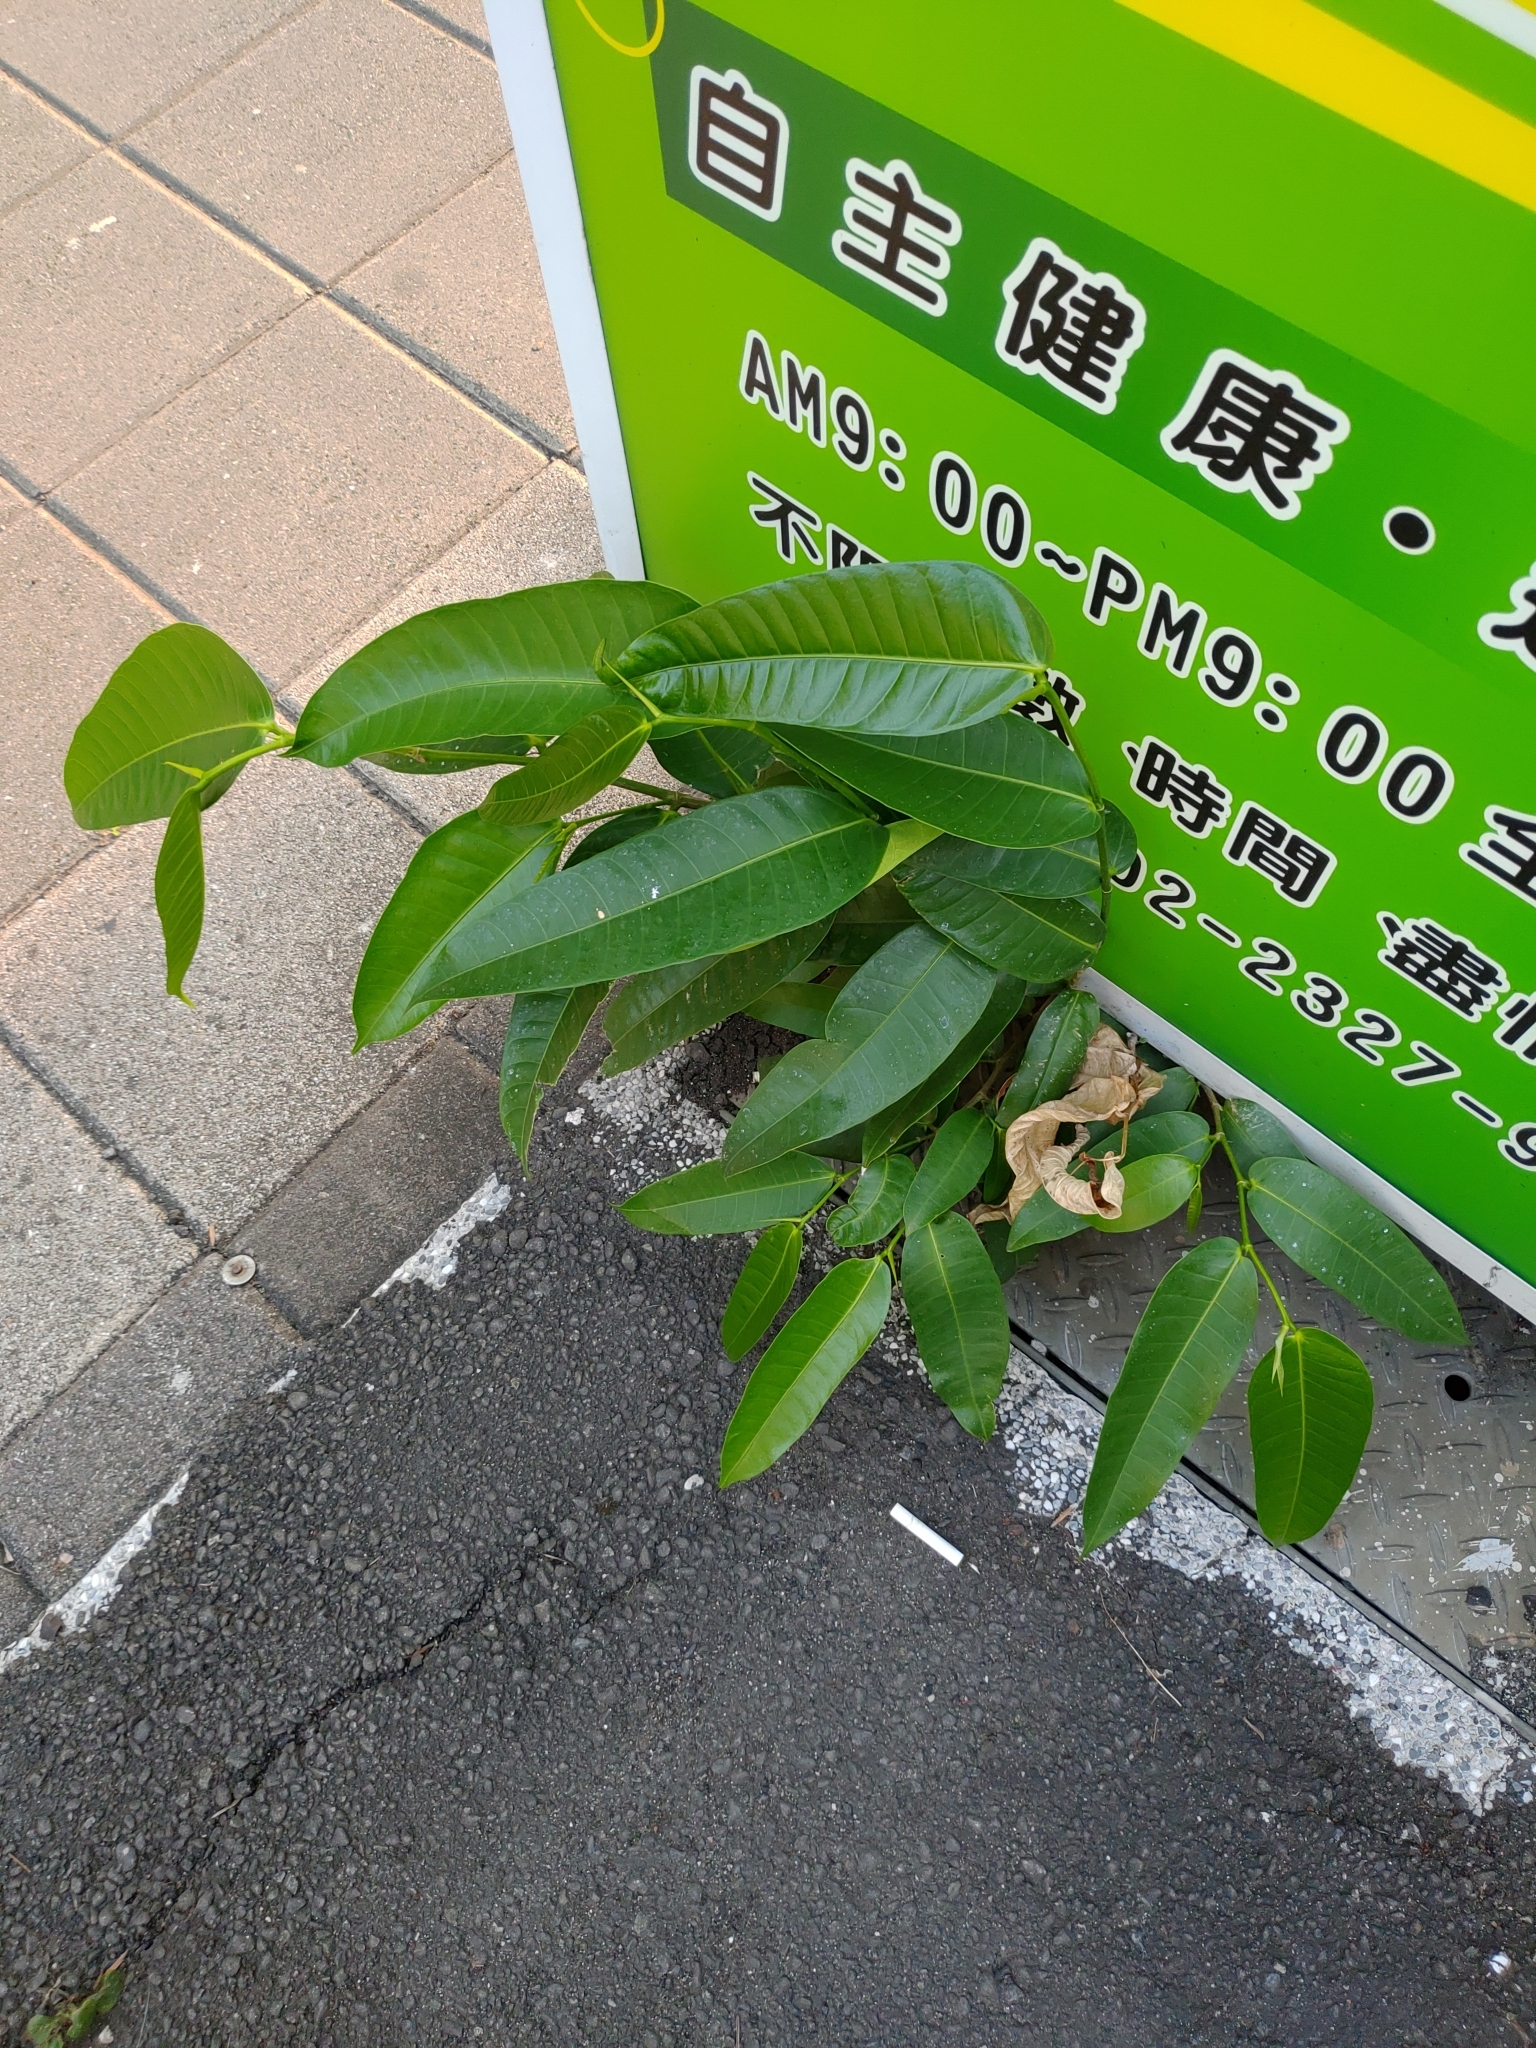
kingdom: Plantae
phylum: Tracheophyta
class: Magnoliopsida
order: Rosales
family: Moraceae
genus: Ficus
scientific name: Ficus virgata
